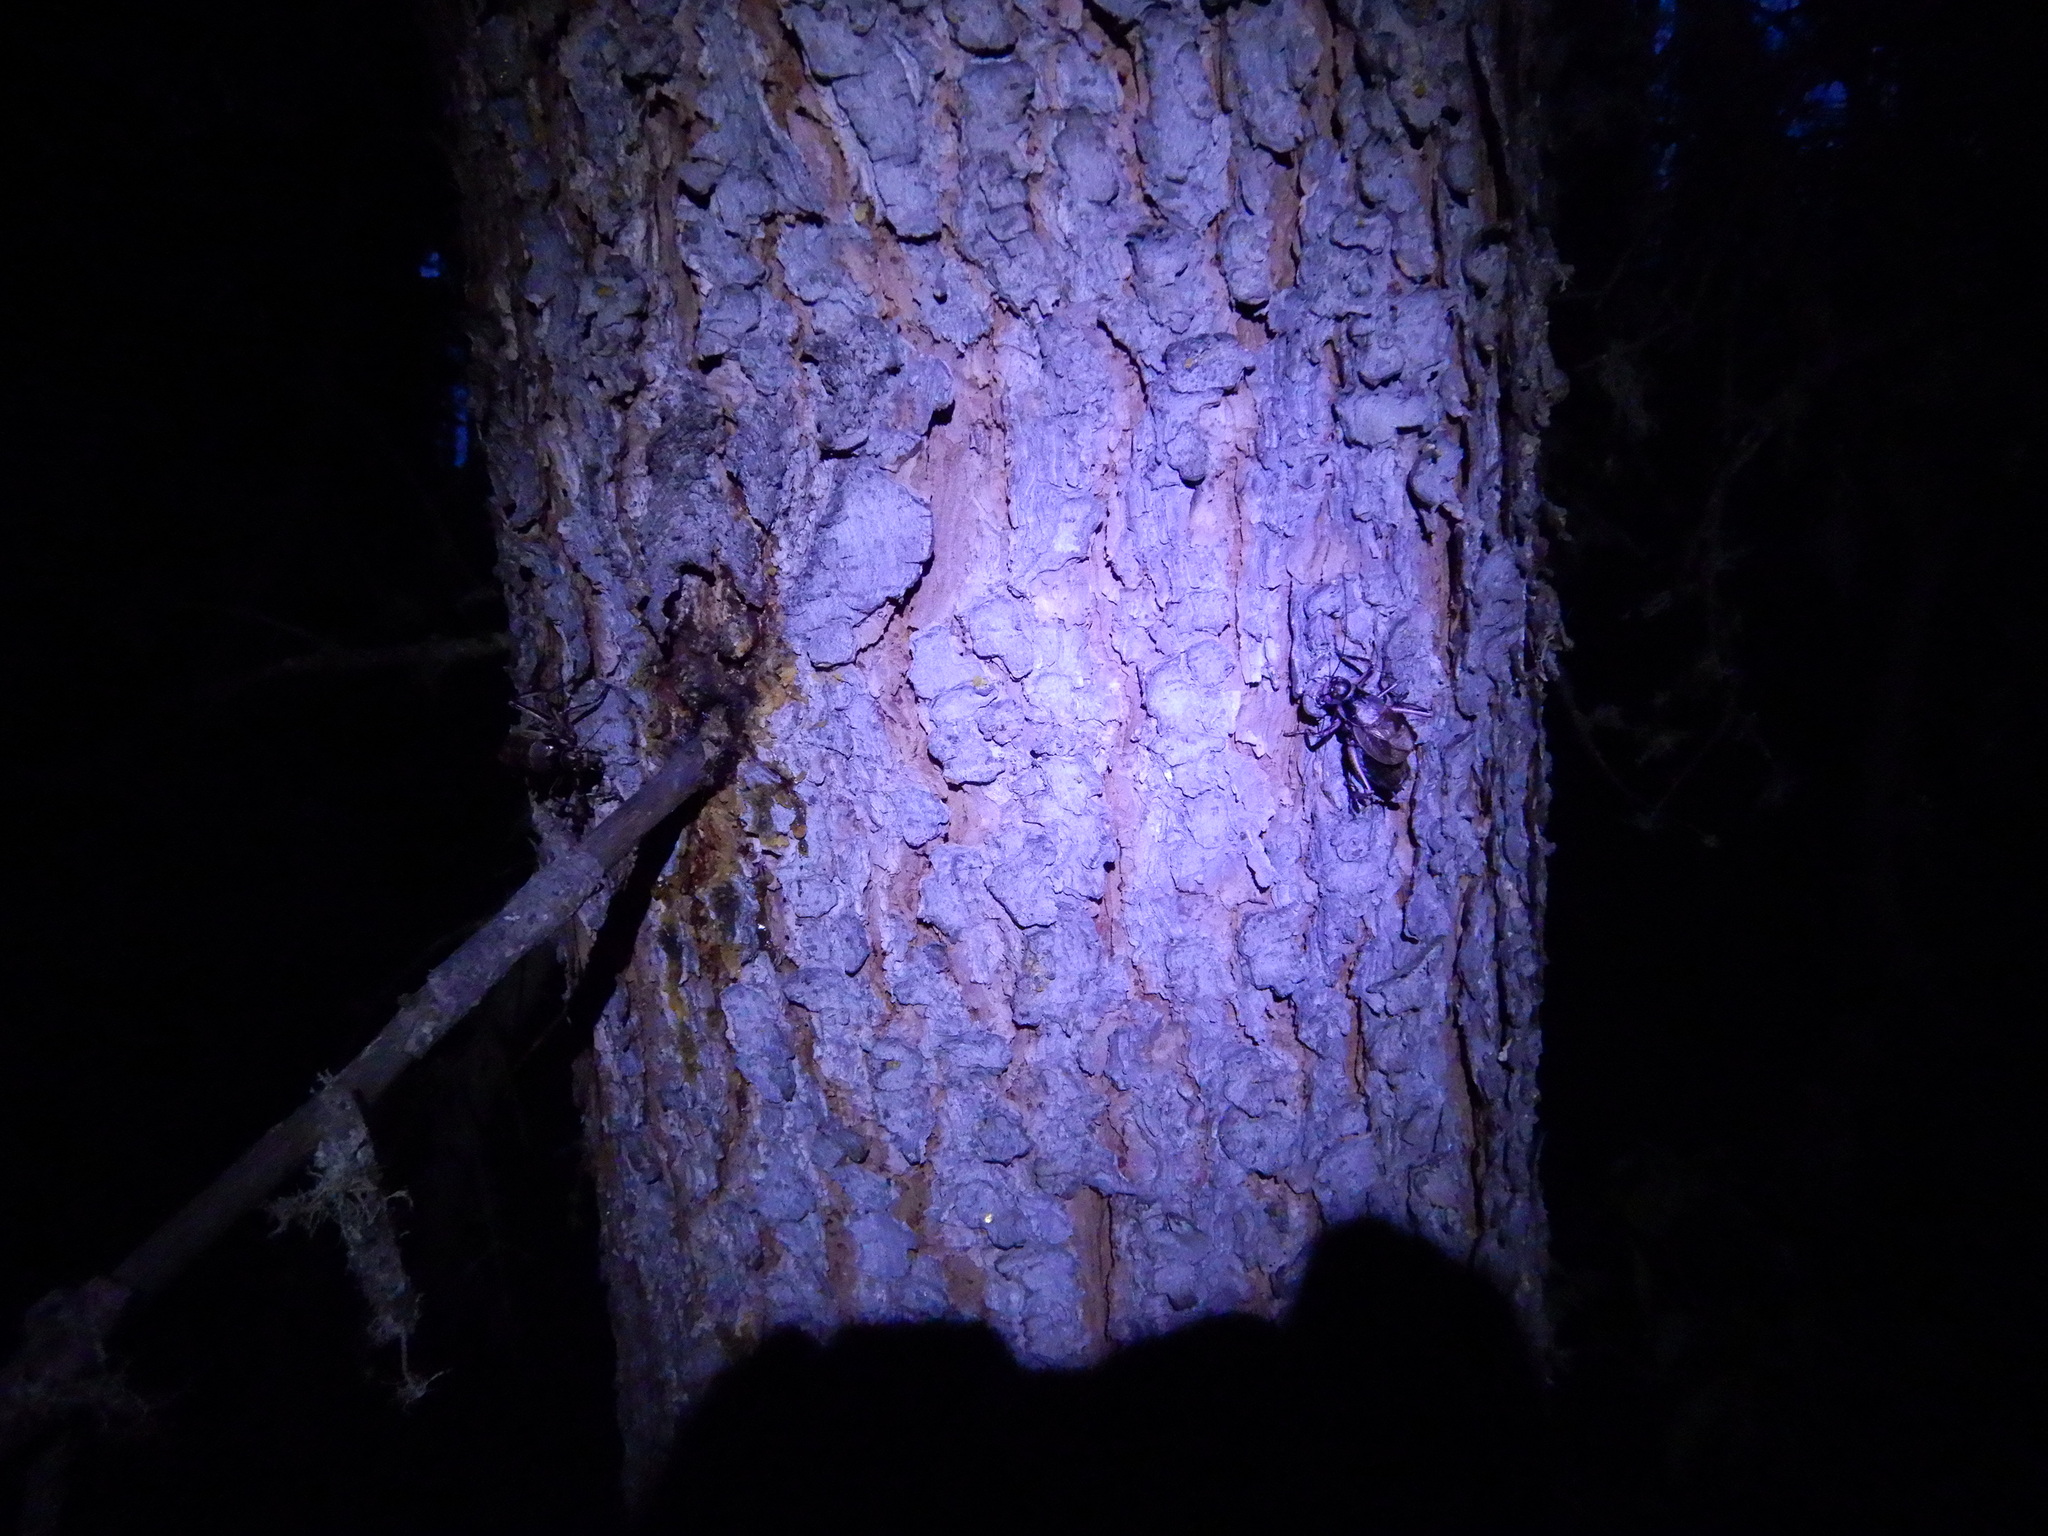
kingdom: Animalia
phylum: Arthropoda
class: Insecta
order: Orthoptera
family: Prophalangopsidae
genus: Cyphoderris
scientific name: Cyphoderris monstrosa
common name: Great grig
